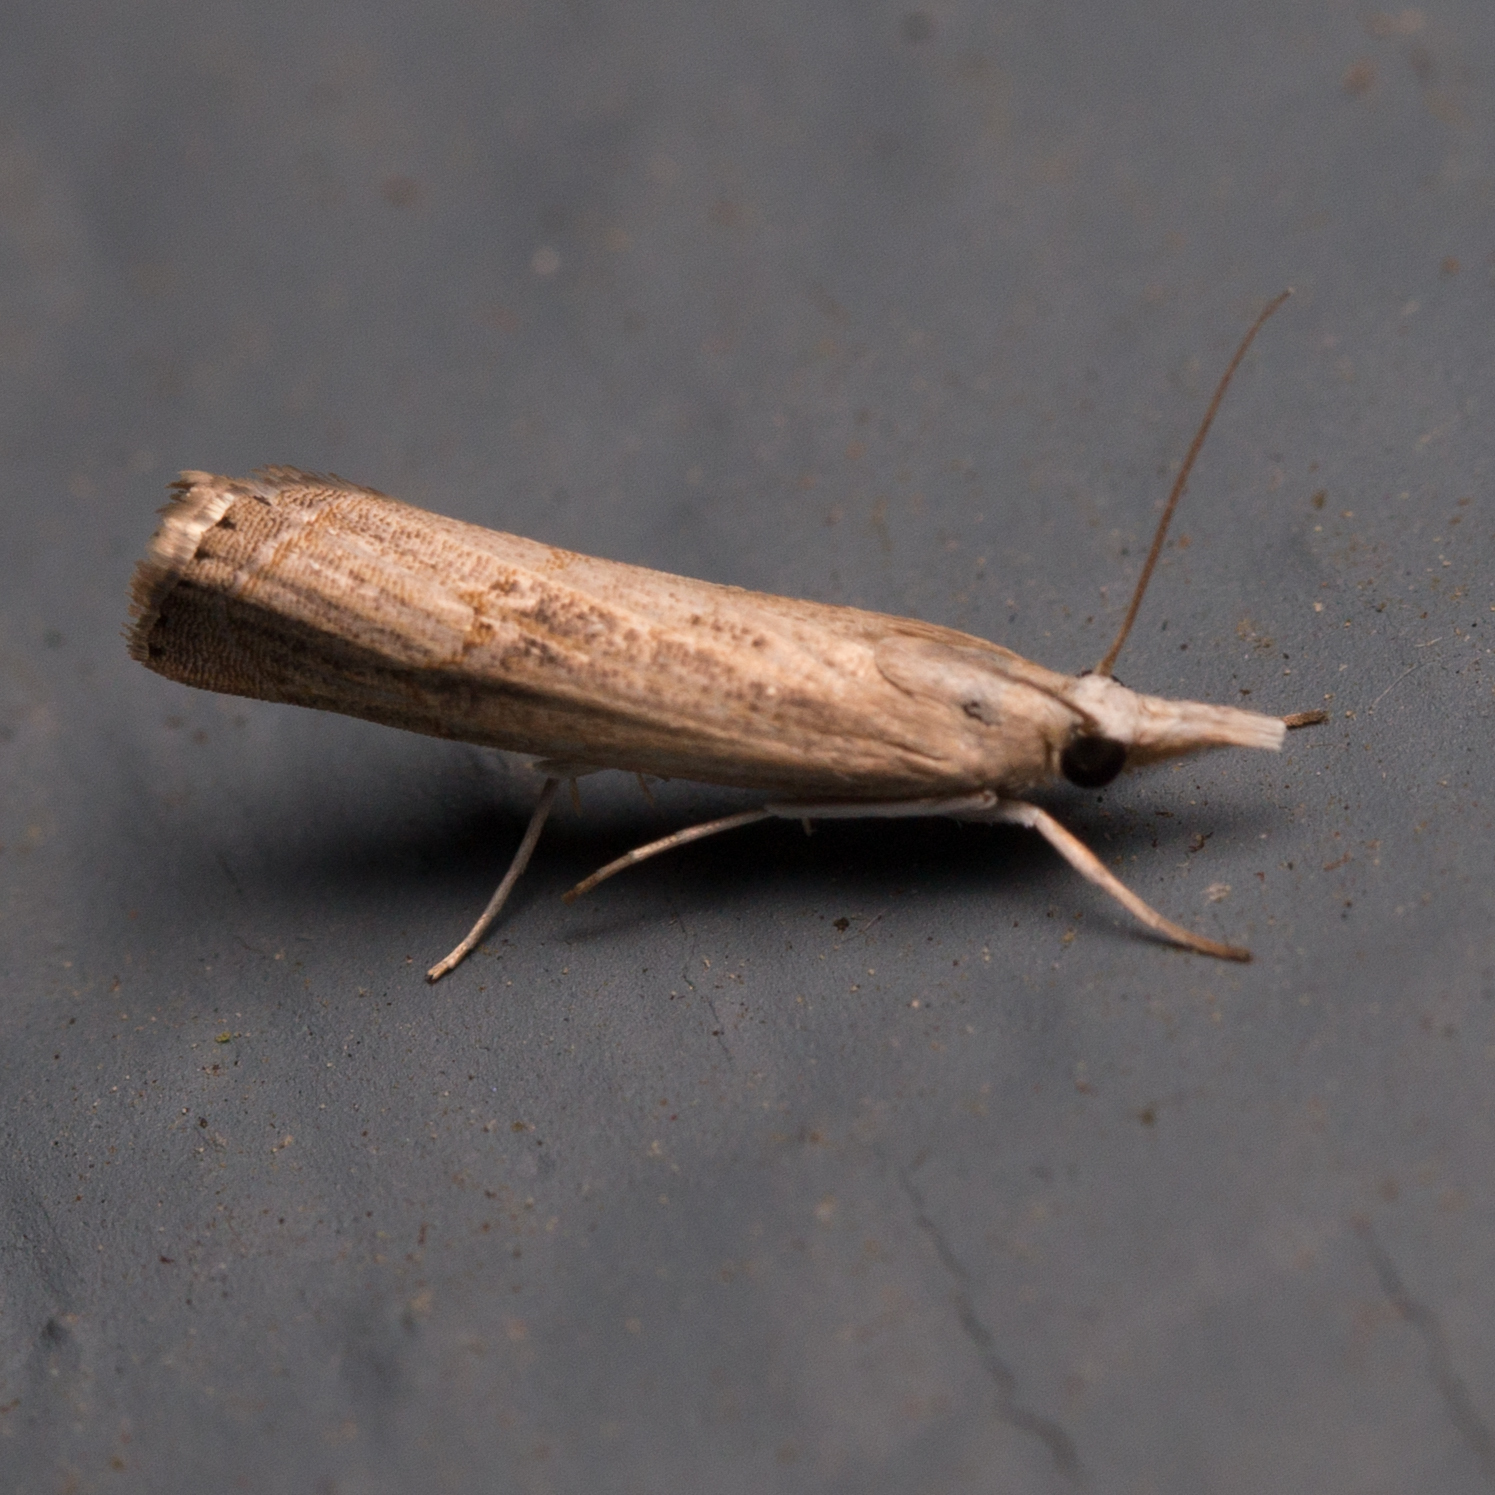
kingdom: Animalia
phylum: Arthropoda
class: Insecta
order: Lepidoptera
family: Crambidae
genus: Parapediasia
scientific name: Parapediasia teterellus
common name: Bluegrass webworm moth
